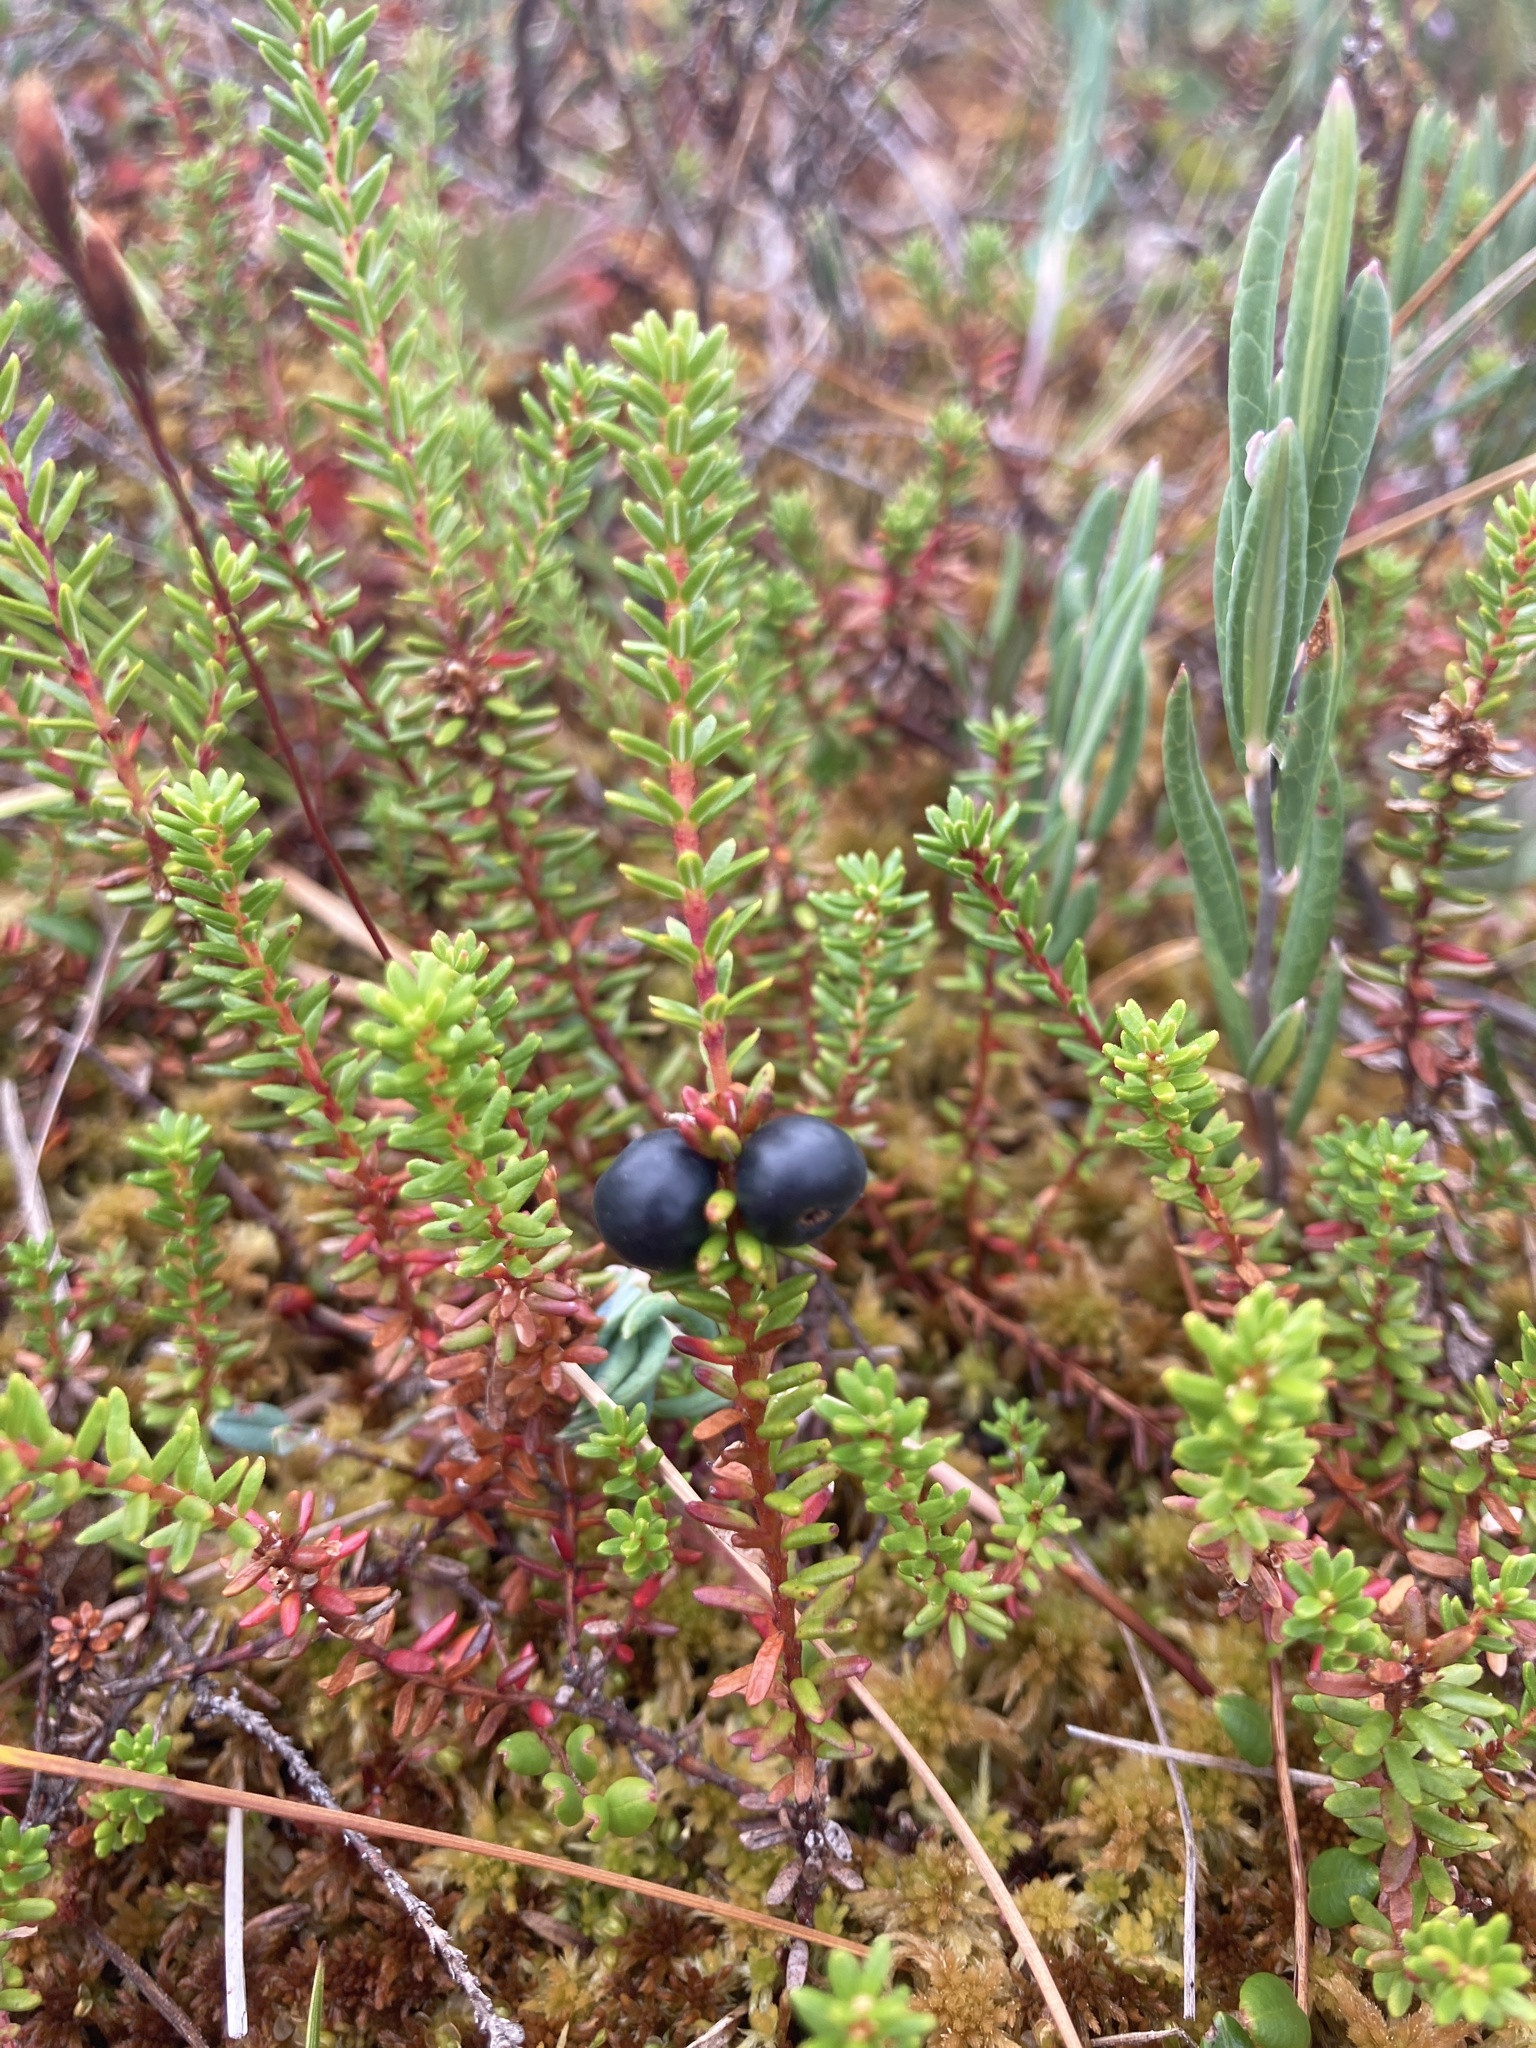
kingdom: Plantae
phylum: Tracheophyta
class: Magnoliopsida
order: Ericales
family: Ericaceae
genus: Empetrum
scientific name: Empetrum nigrum
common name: Black crowberry
